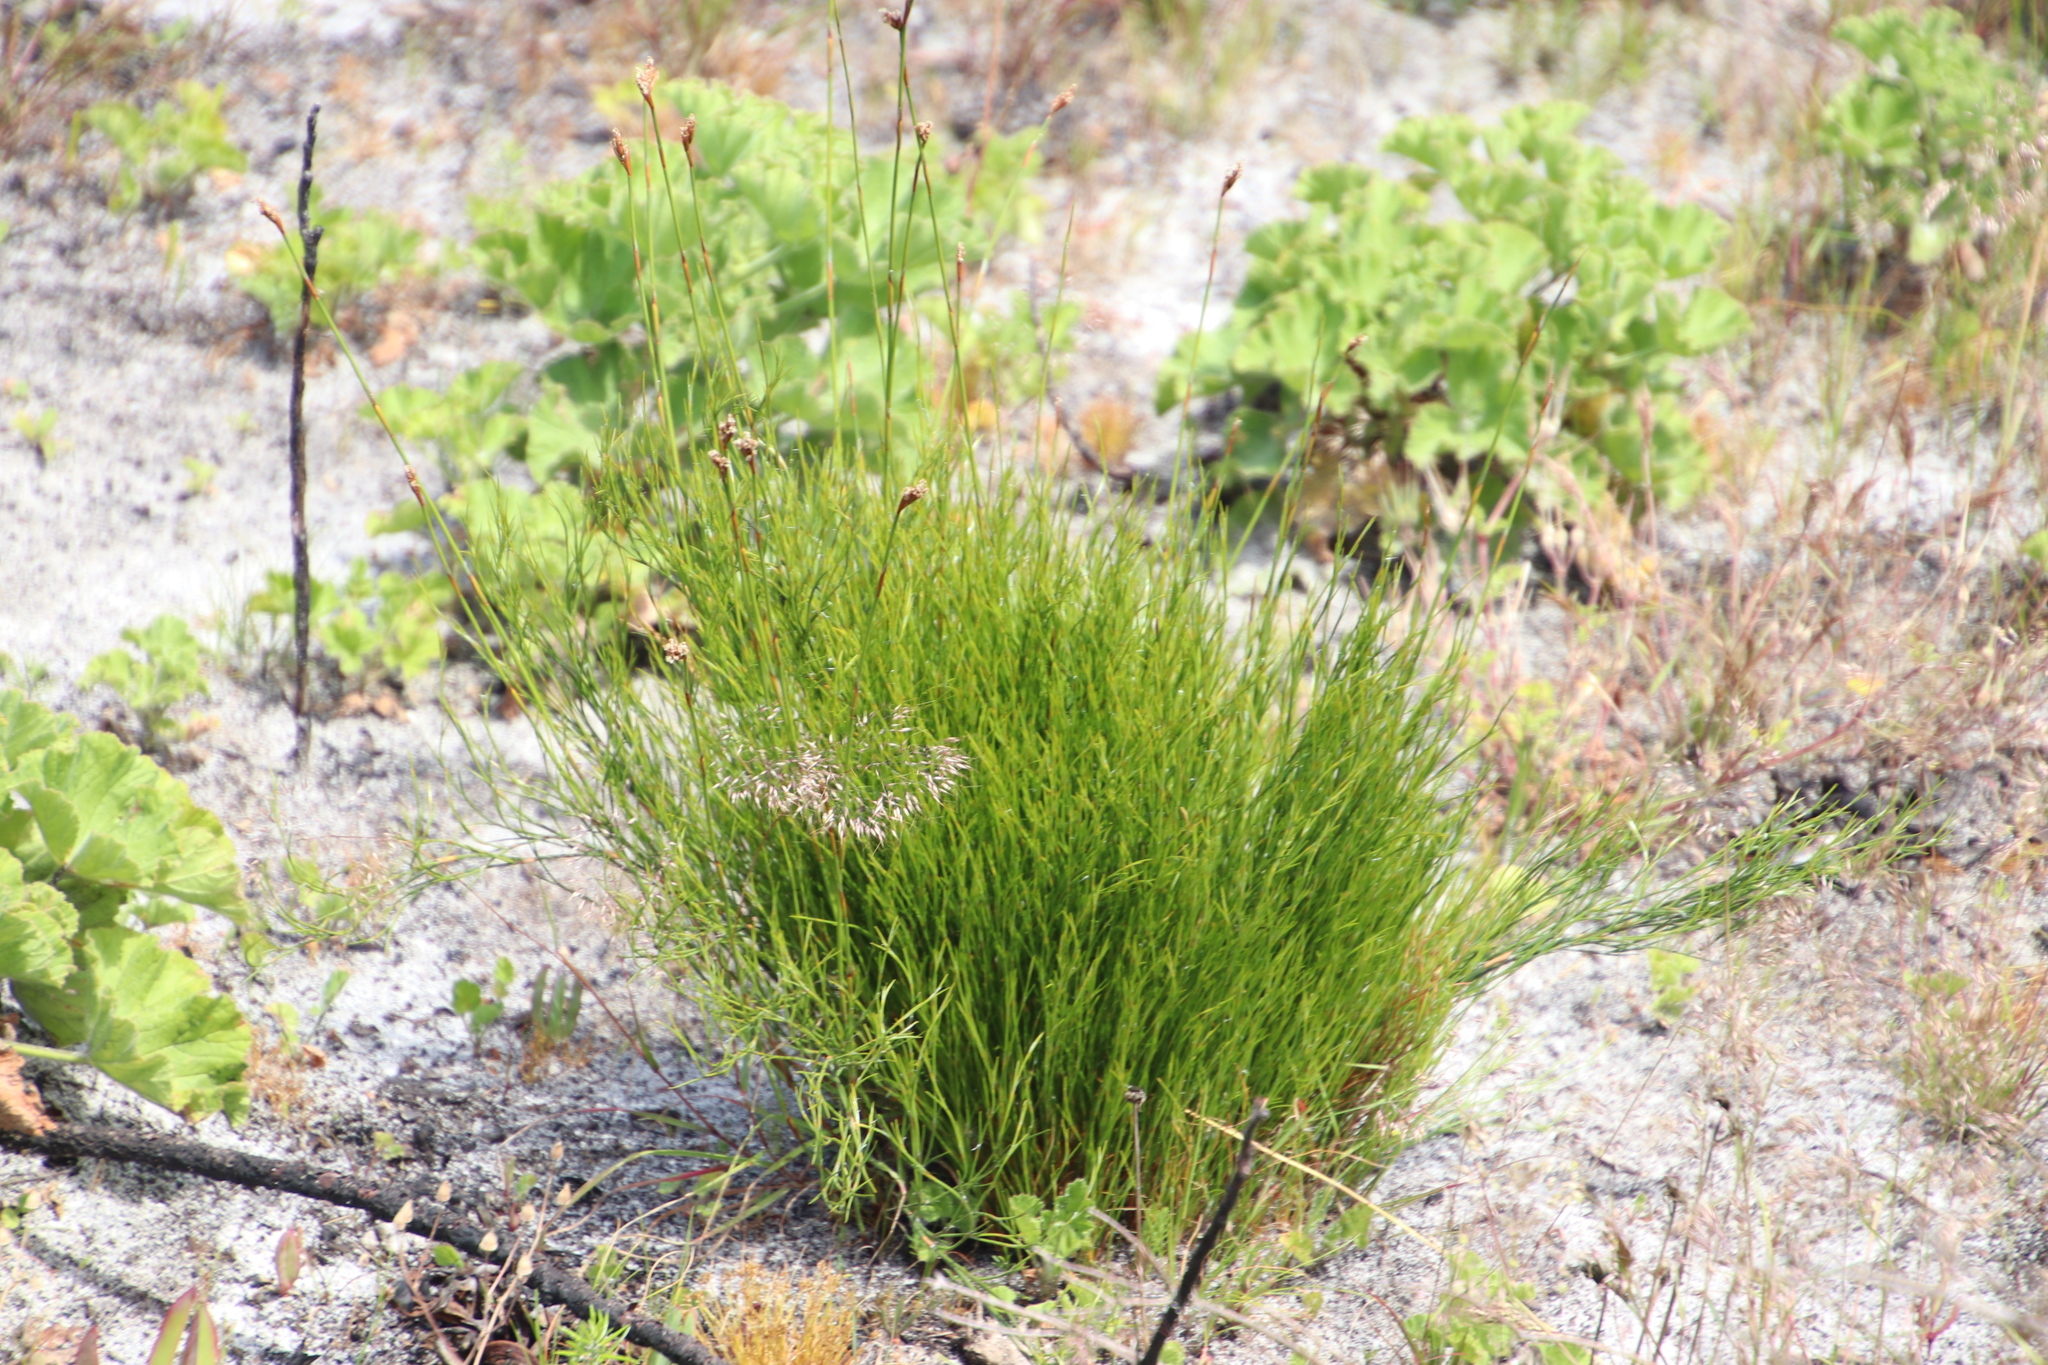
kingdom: Plantae
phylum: Tracheophyta
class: Liliopsida
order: Poales
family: Restionaceae
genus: Restio
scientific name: Restio capensis
